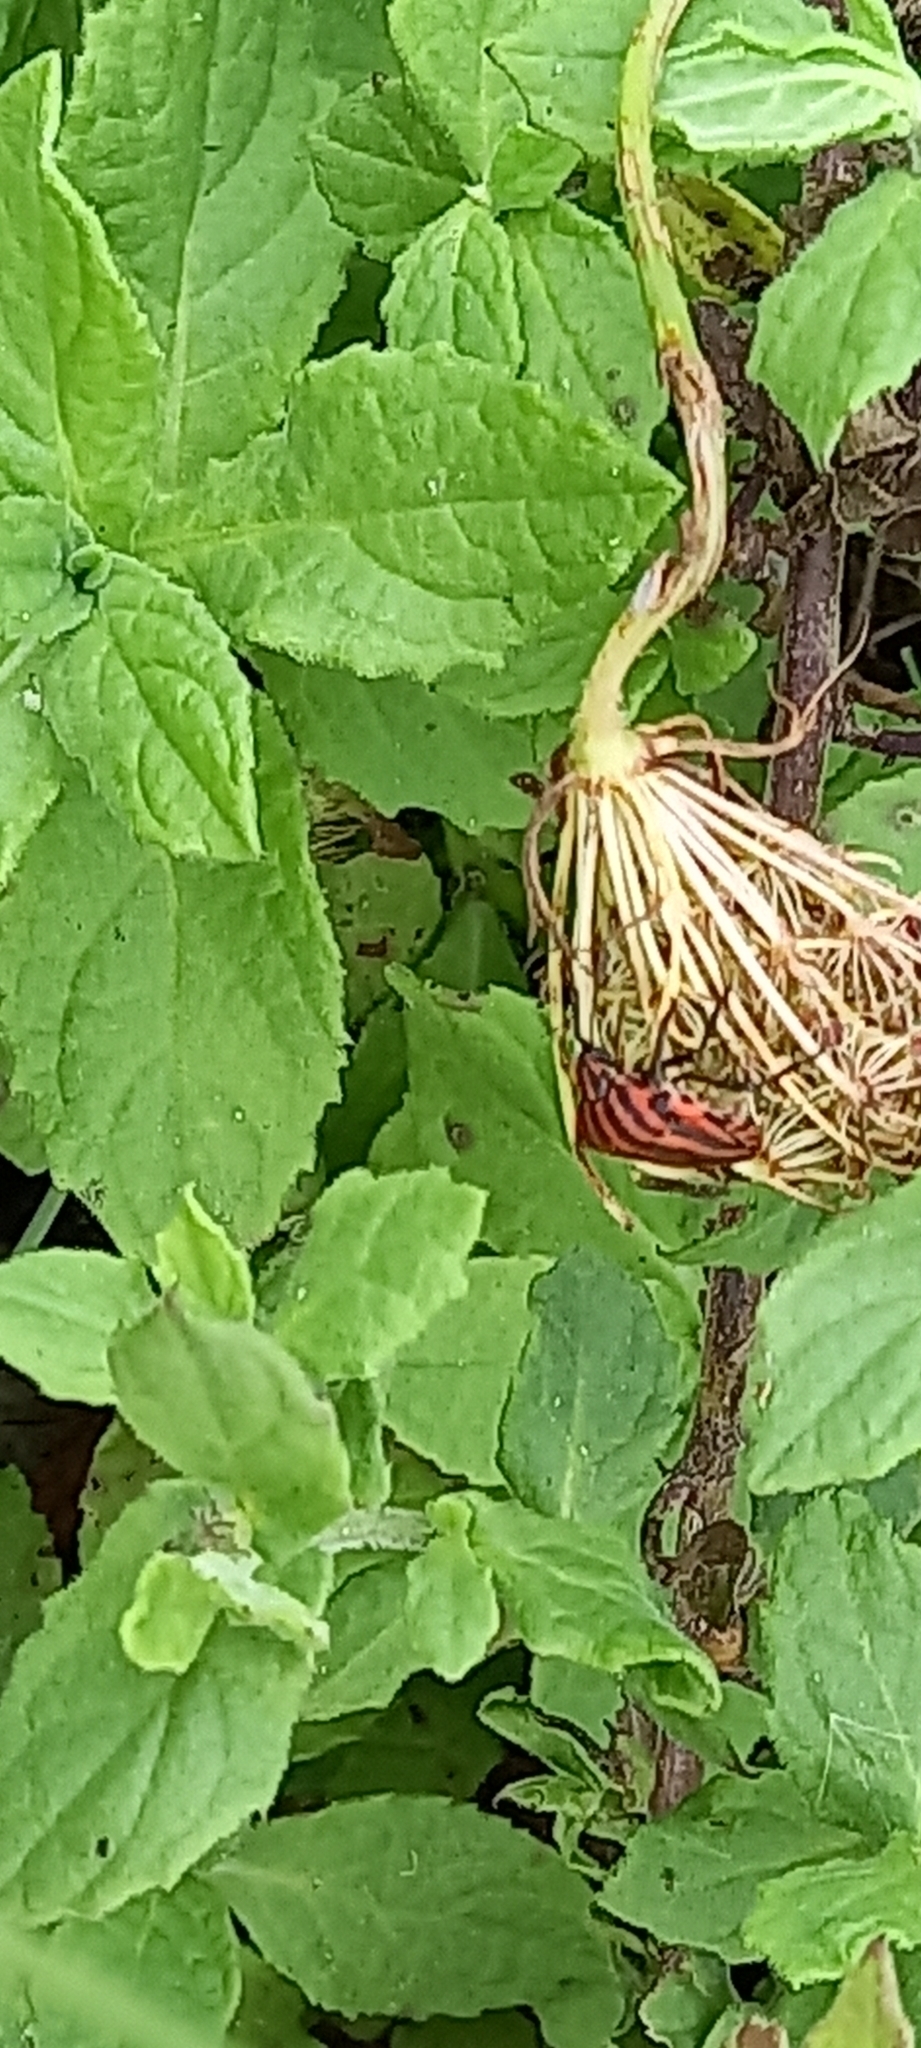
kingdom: Animalia
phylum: Arthropoda
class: Insecta
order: Hemiptera
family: Pentatomidae
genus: Graphosoma
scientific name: Graphosoma italicum
